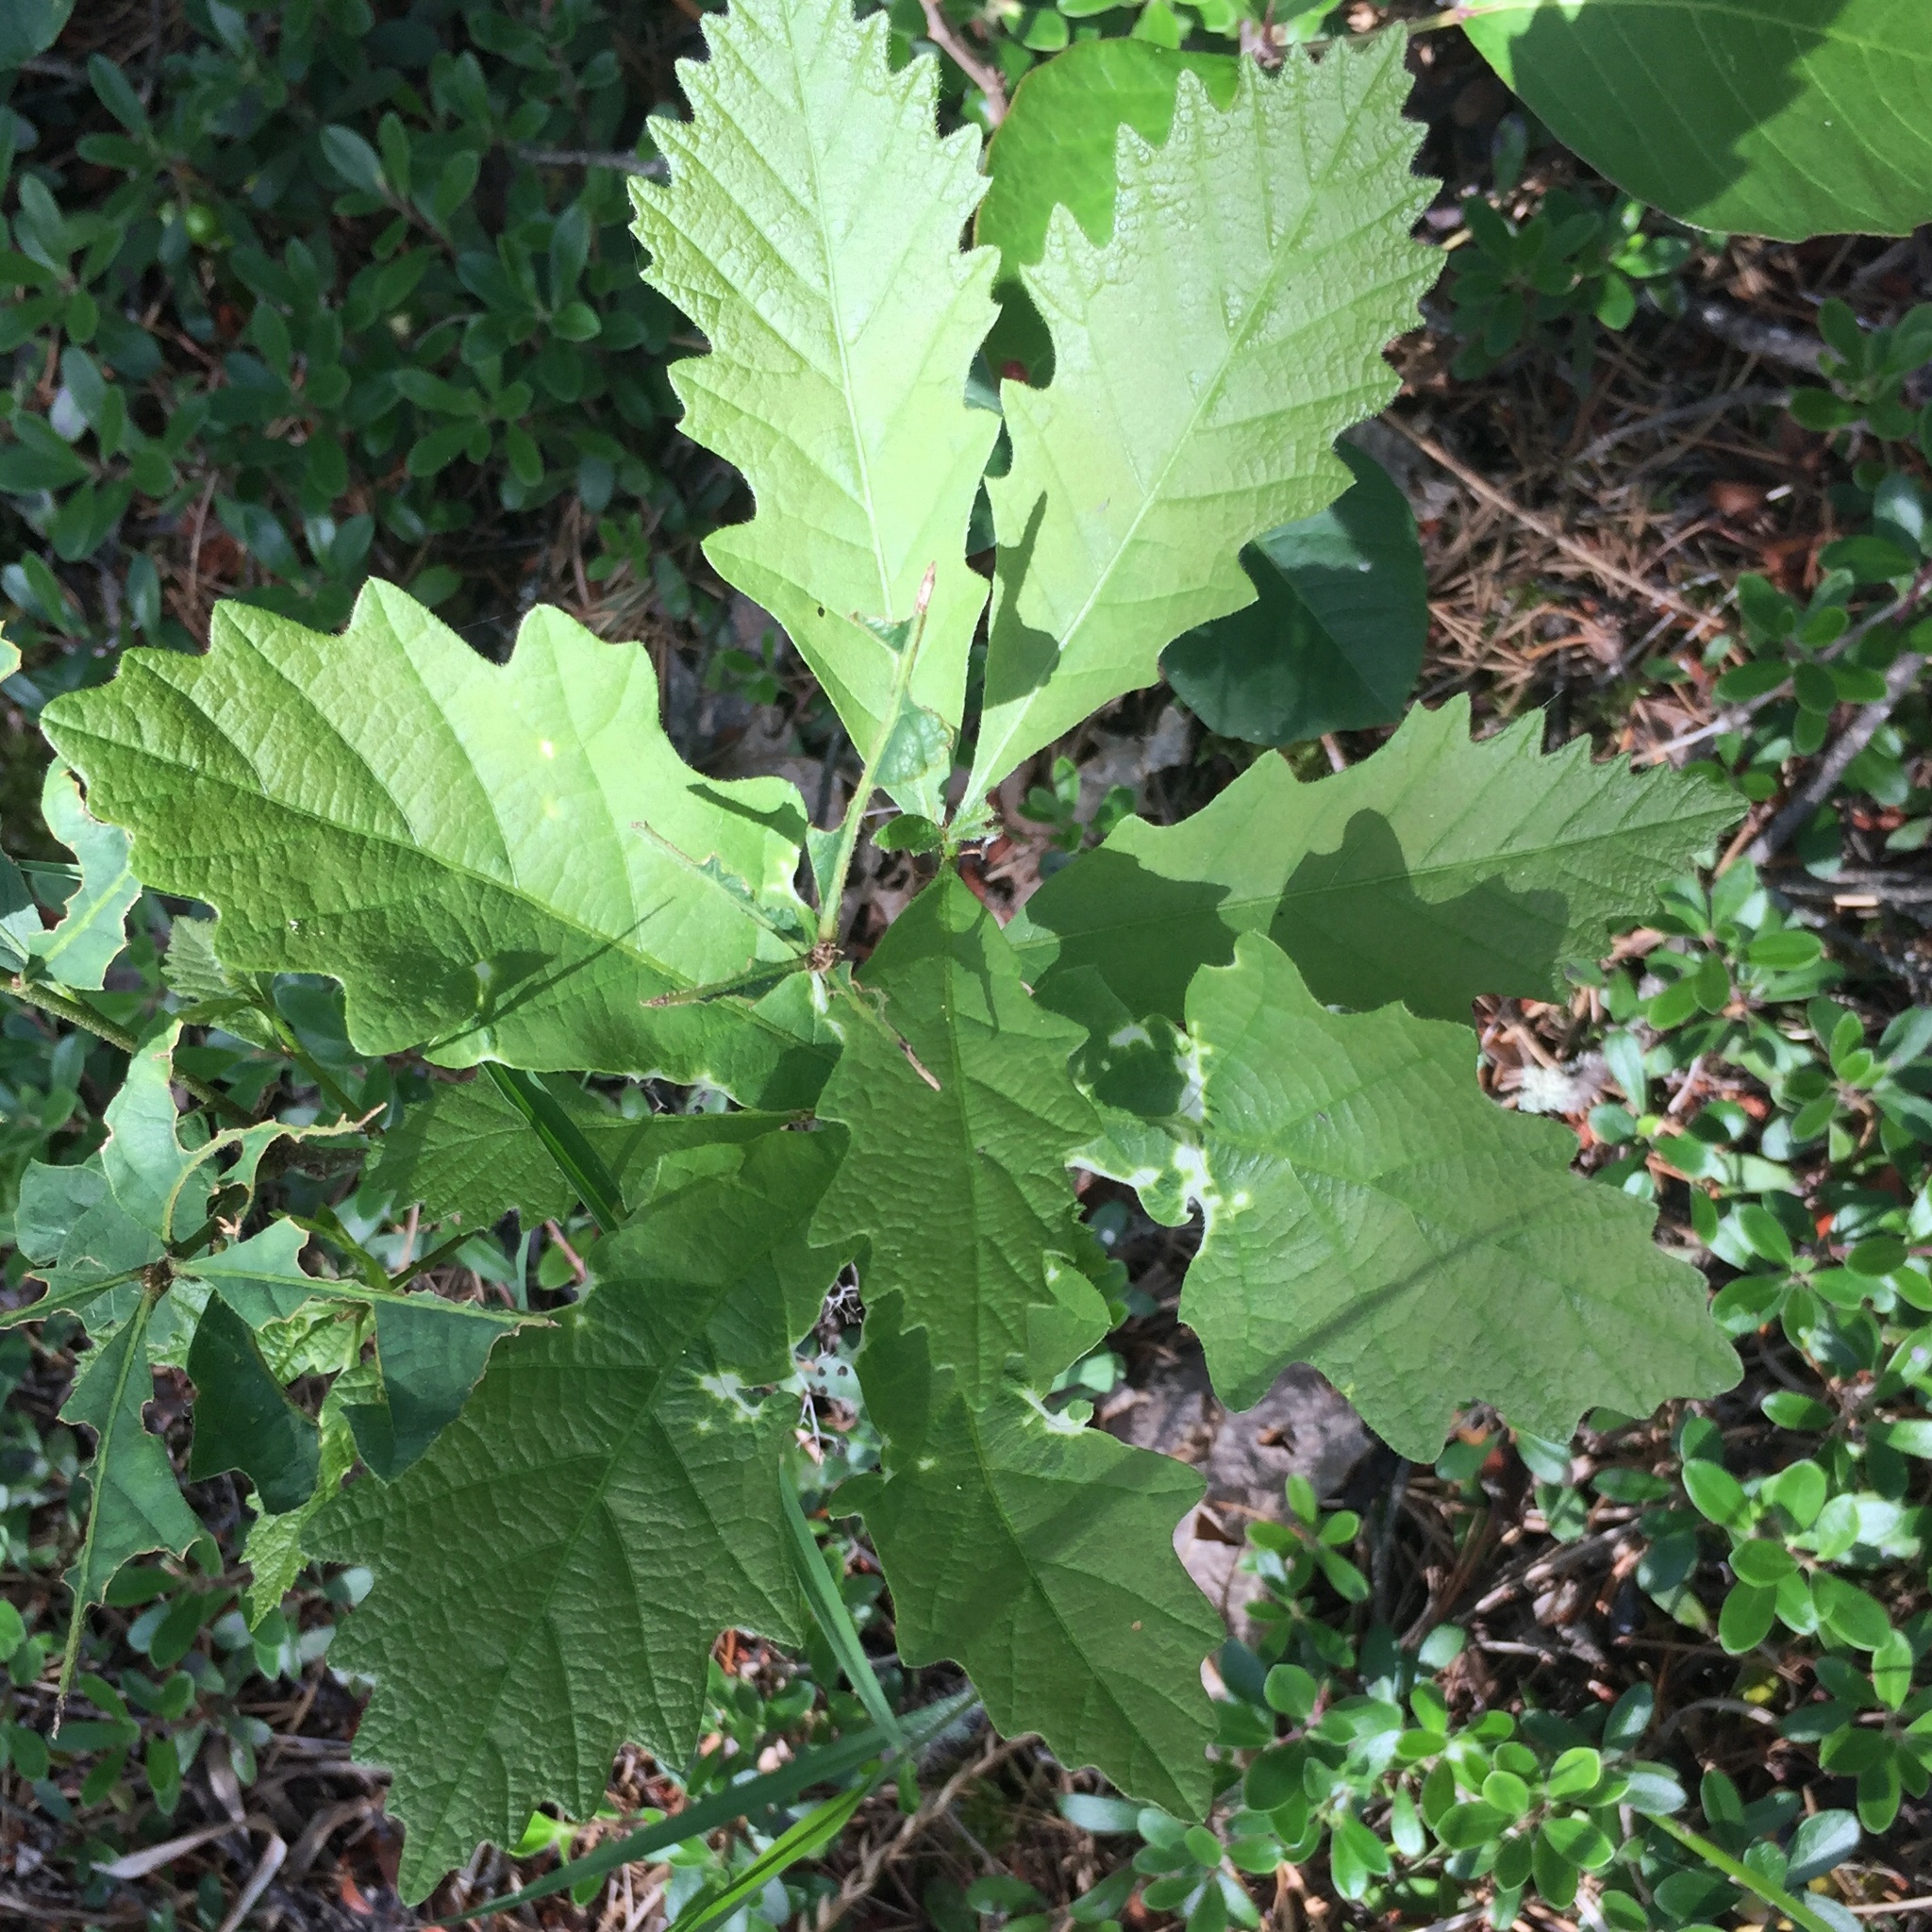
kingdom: Plantae
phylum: Tracheophyta
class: Magnoliopsida
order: Fagales
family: Fagaceae
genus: Quercus
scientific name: Quercus macrocarpa
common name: Bur oak
